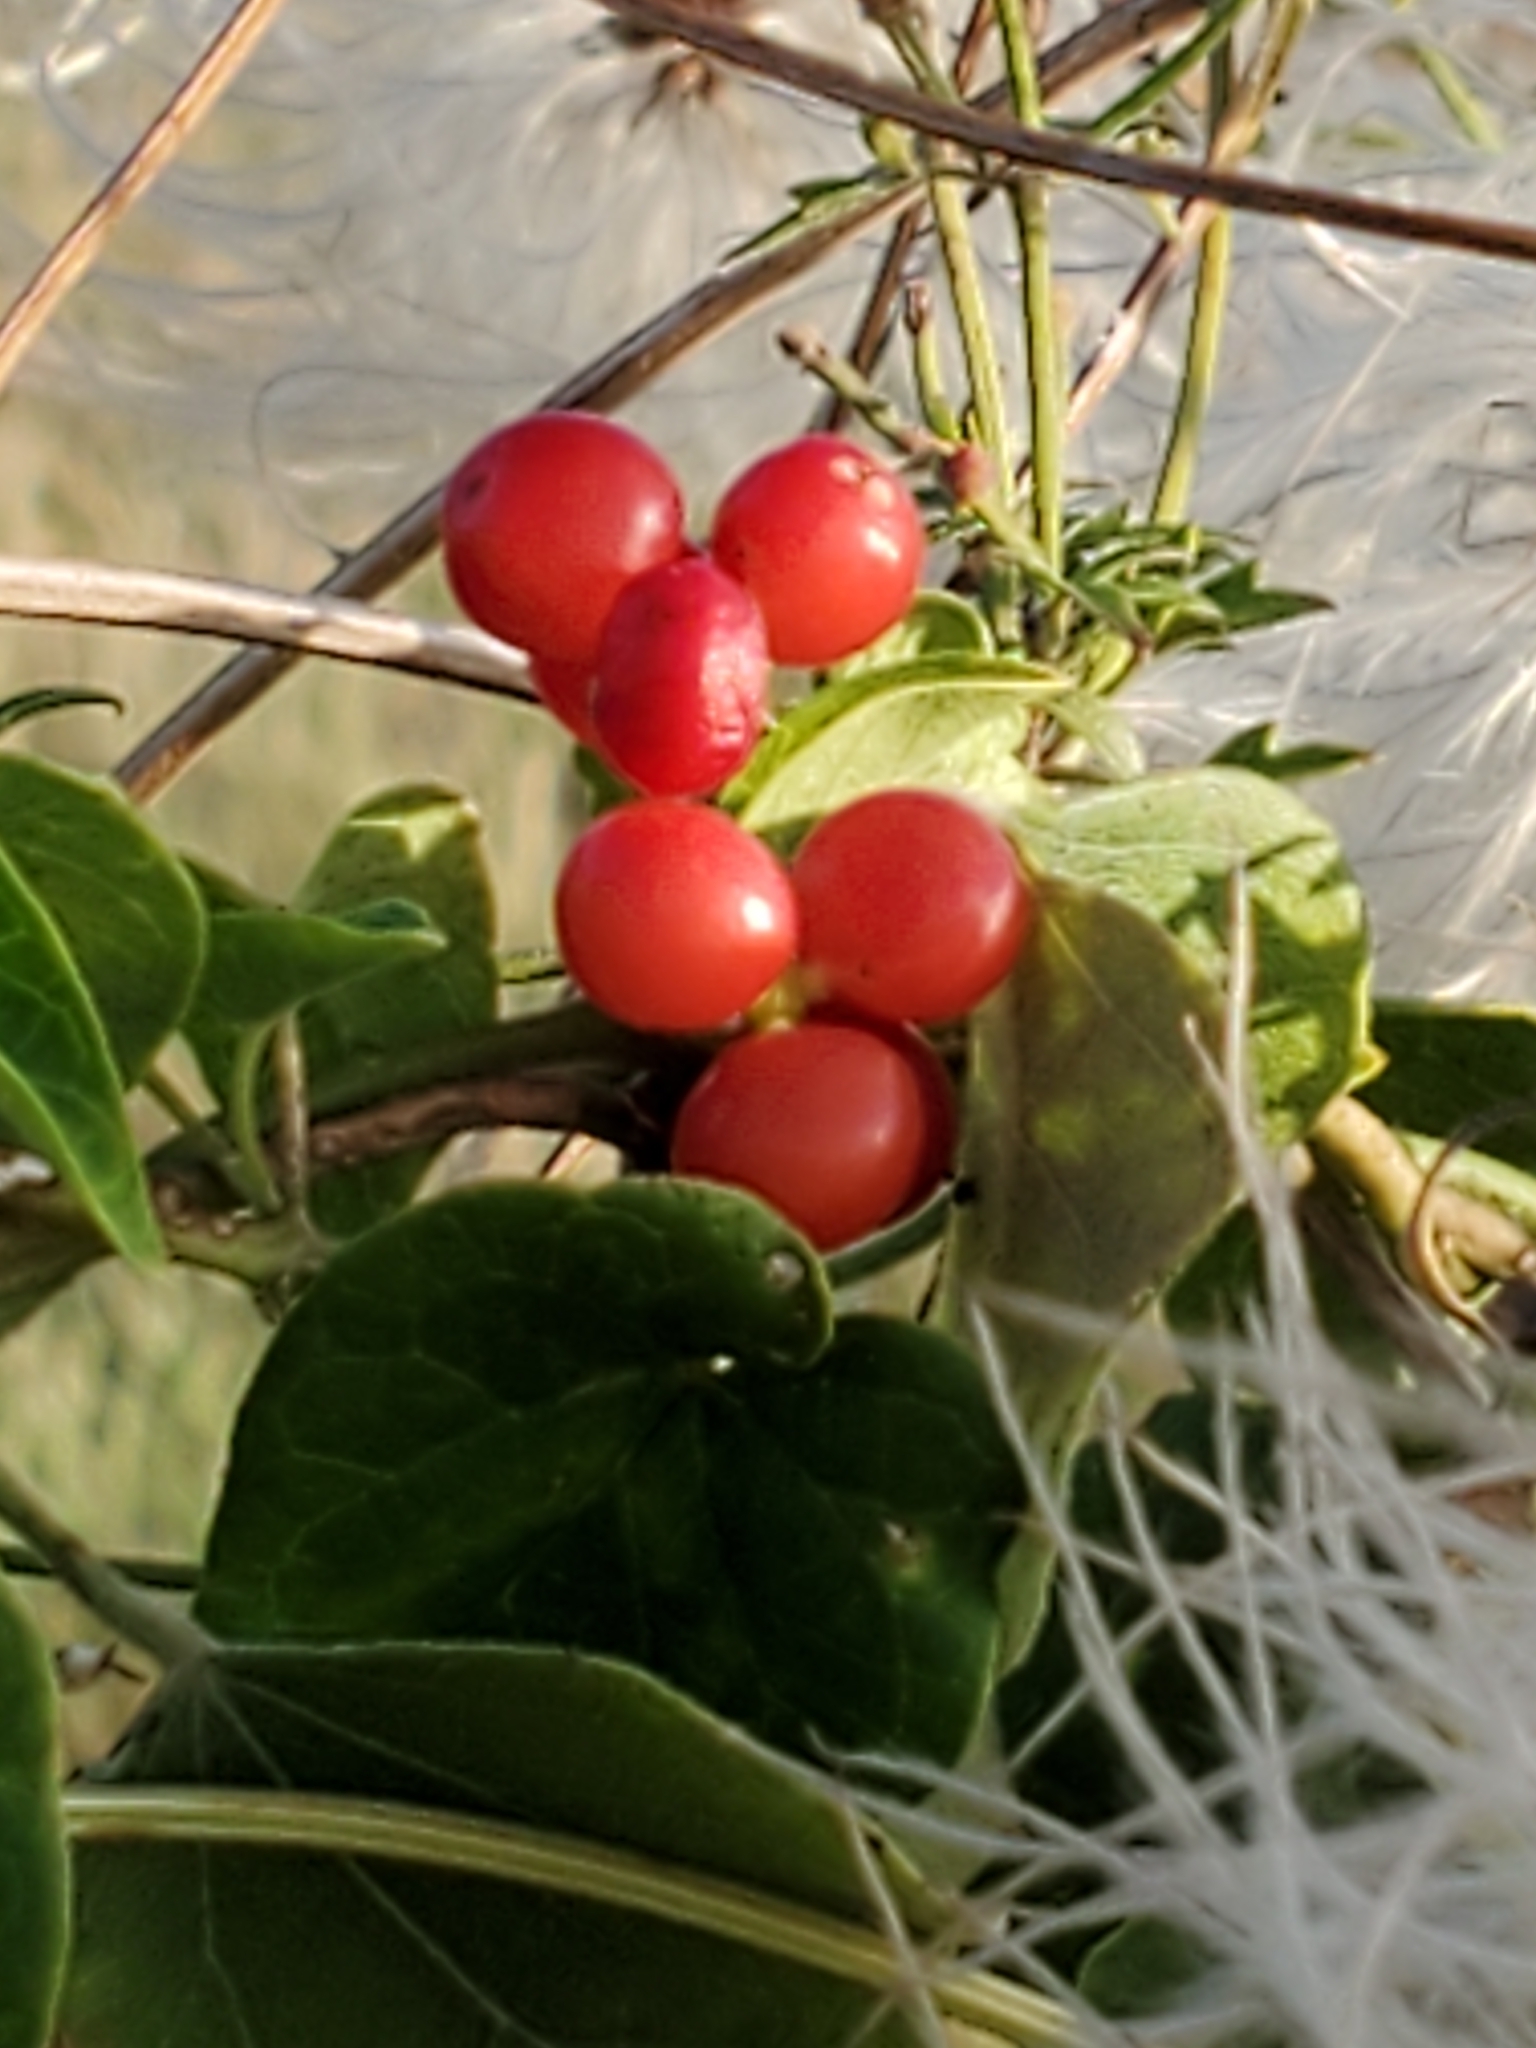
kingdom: Plantae
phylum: Tracheophyta
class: Magnoliopsida
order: Ranunculales
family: Menispermaceae
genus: Cocculus
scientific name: Cocculus carolinus
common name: Carolina moonseed
